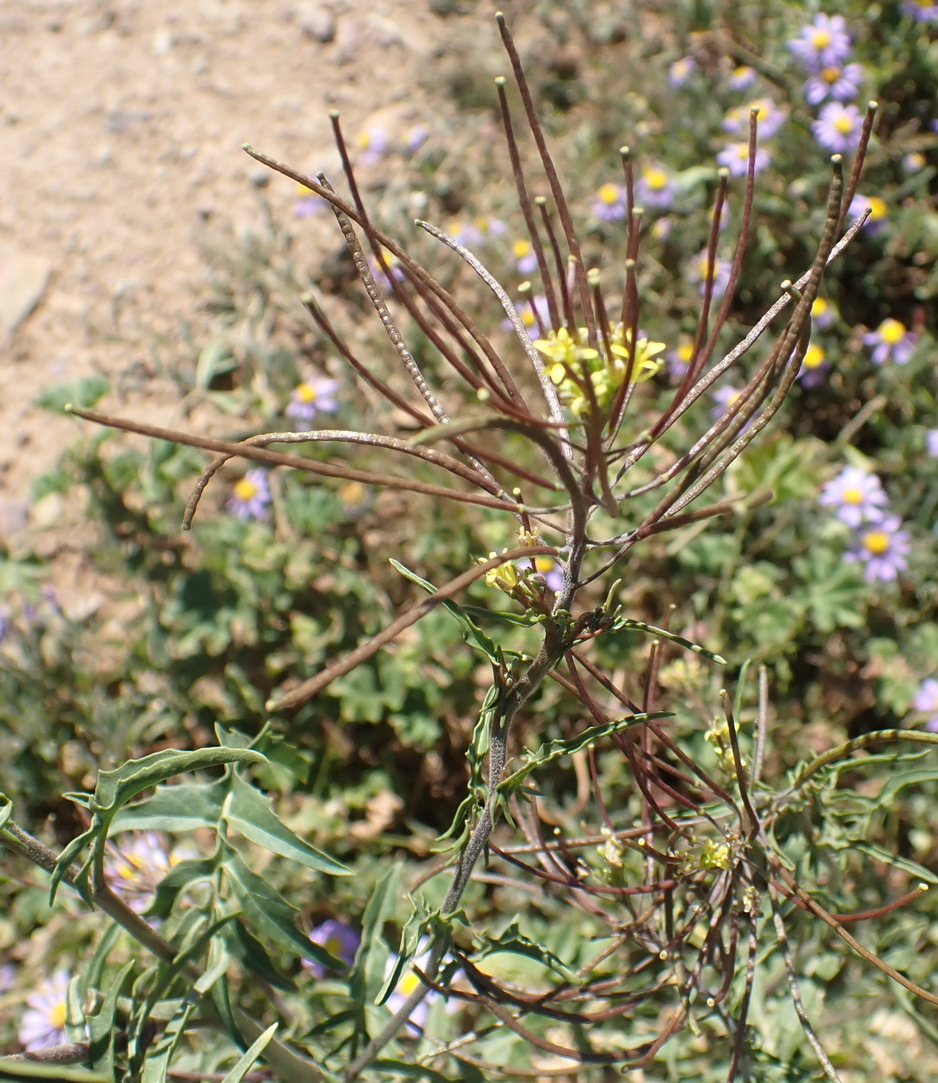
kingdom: Plantae
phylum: Tracheophyta
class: Magnoliopsida
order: Brassicales
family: Brassicaceae
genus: Sisymbrium
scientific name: Sisymbrium irio
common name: London rocket
